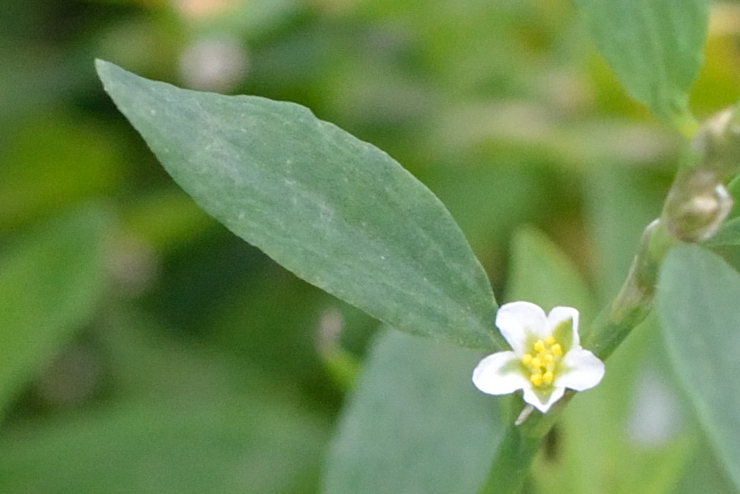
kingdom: Plantae
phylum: Tracheophyta
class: Magnoliopsida
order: Caryophyllales
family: Polygonaceae
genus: Polygonum
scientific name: Polygonum
